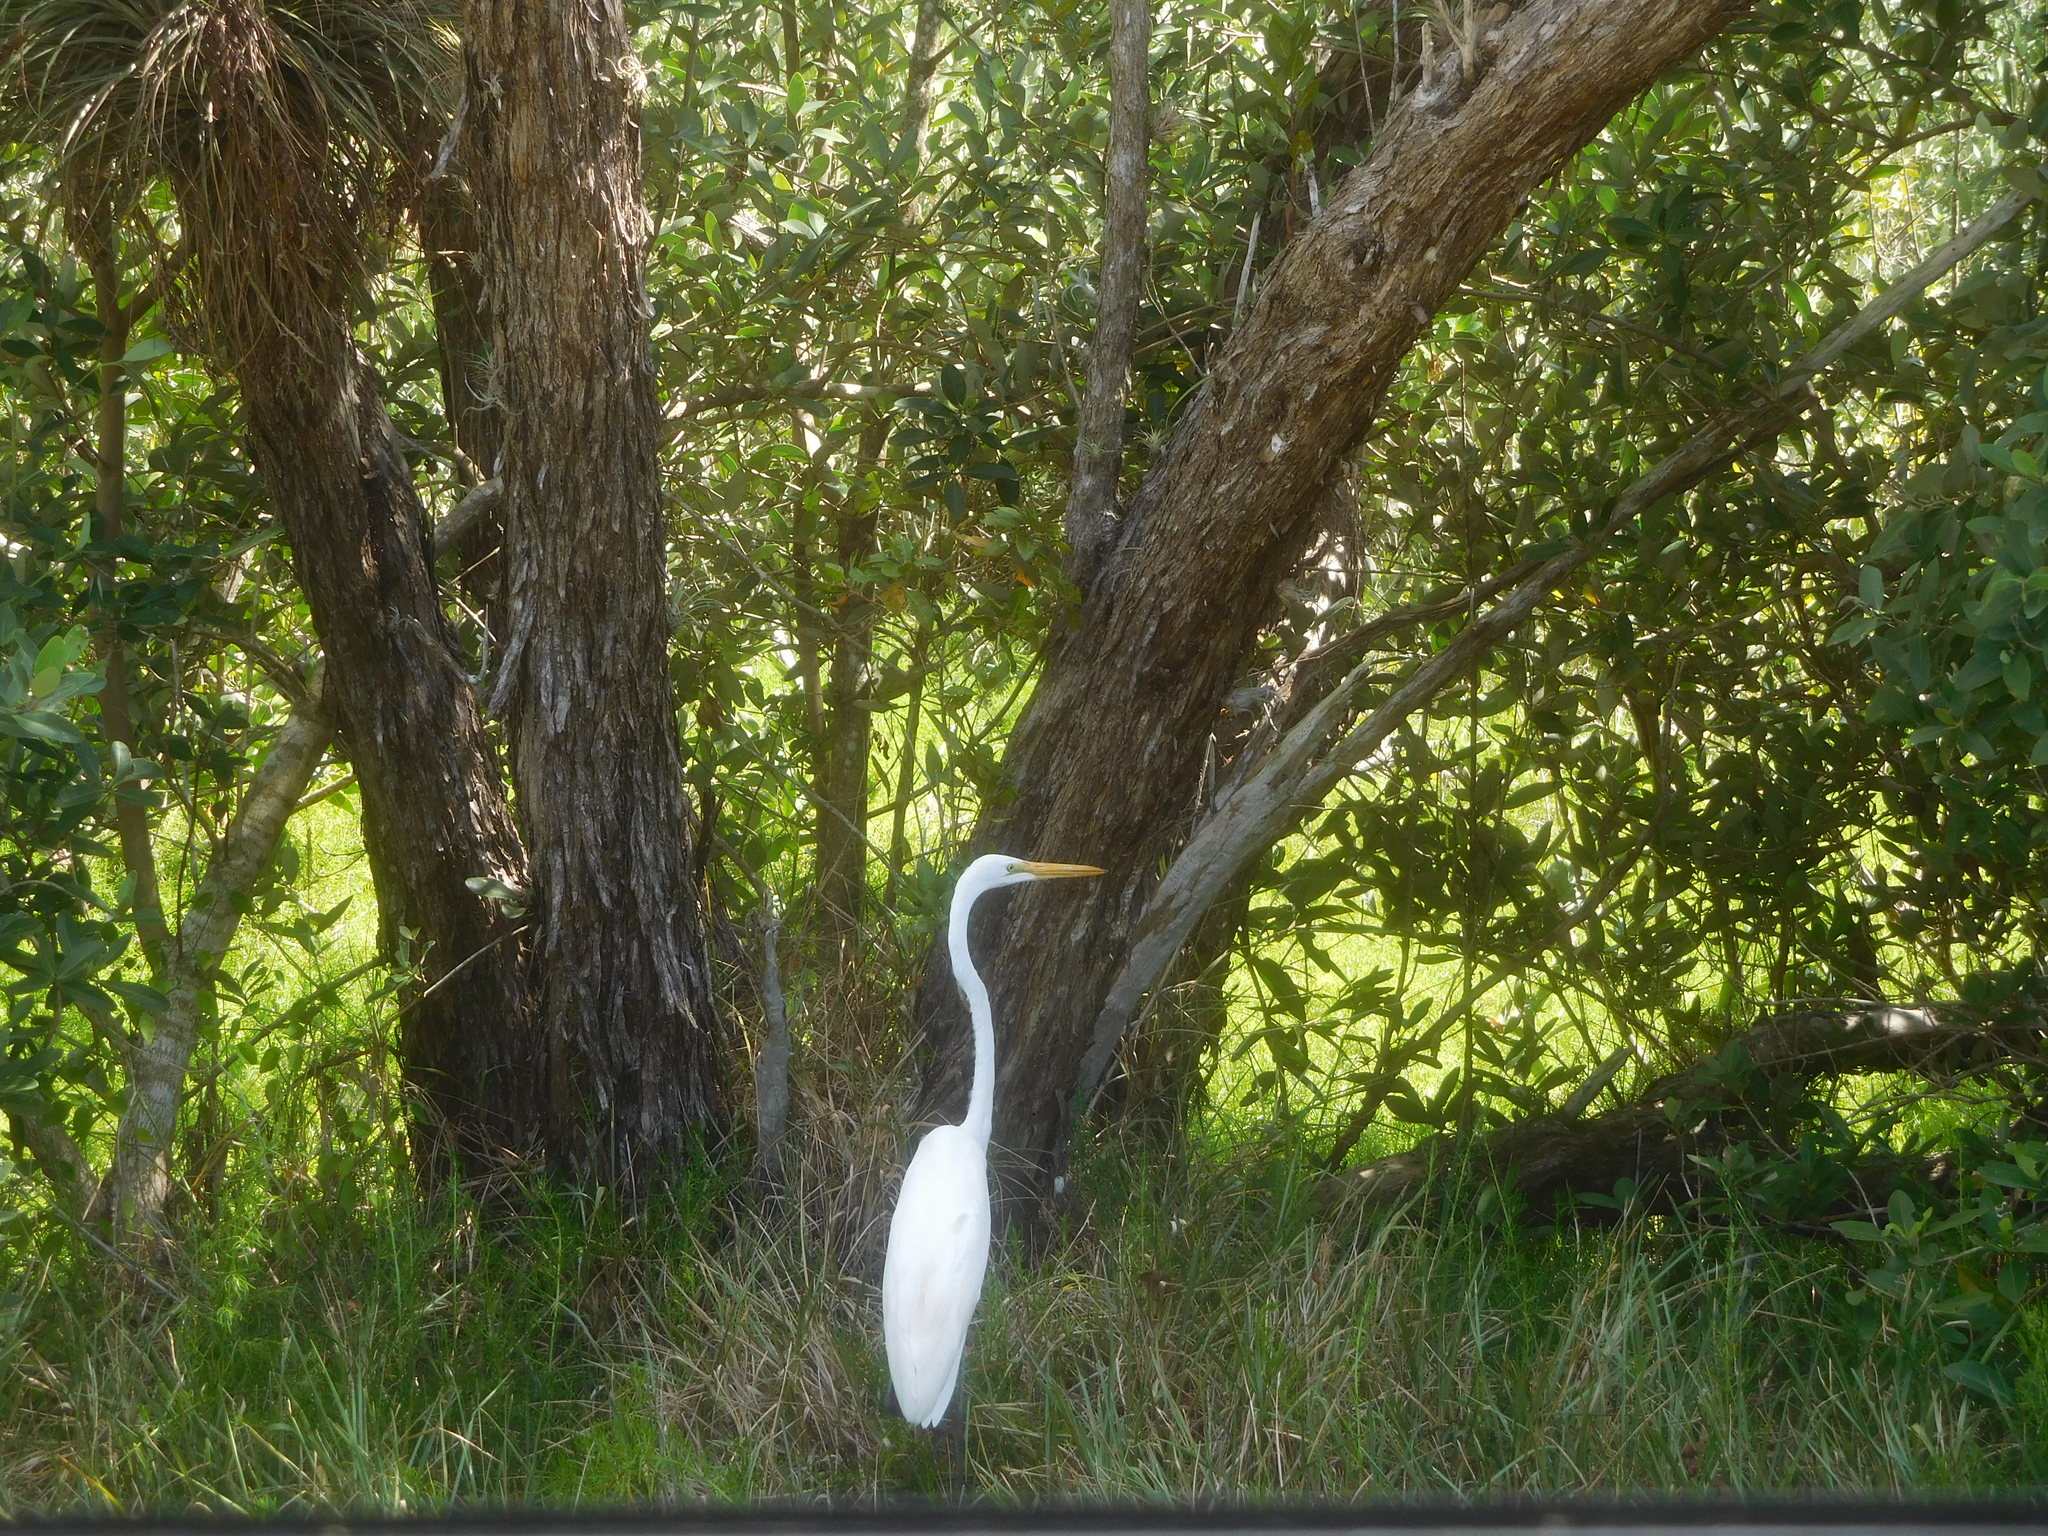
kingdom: Animalia
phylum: Chordata
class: Aves
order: Pelecaniformes
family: Ardeidae
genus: Ardea
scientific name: Ardea alba
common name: Great egret
